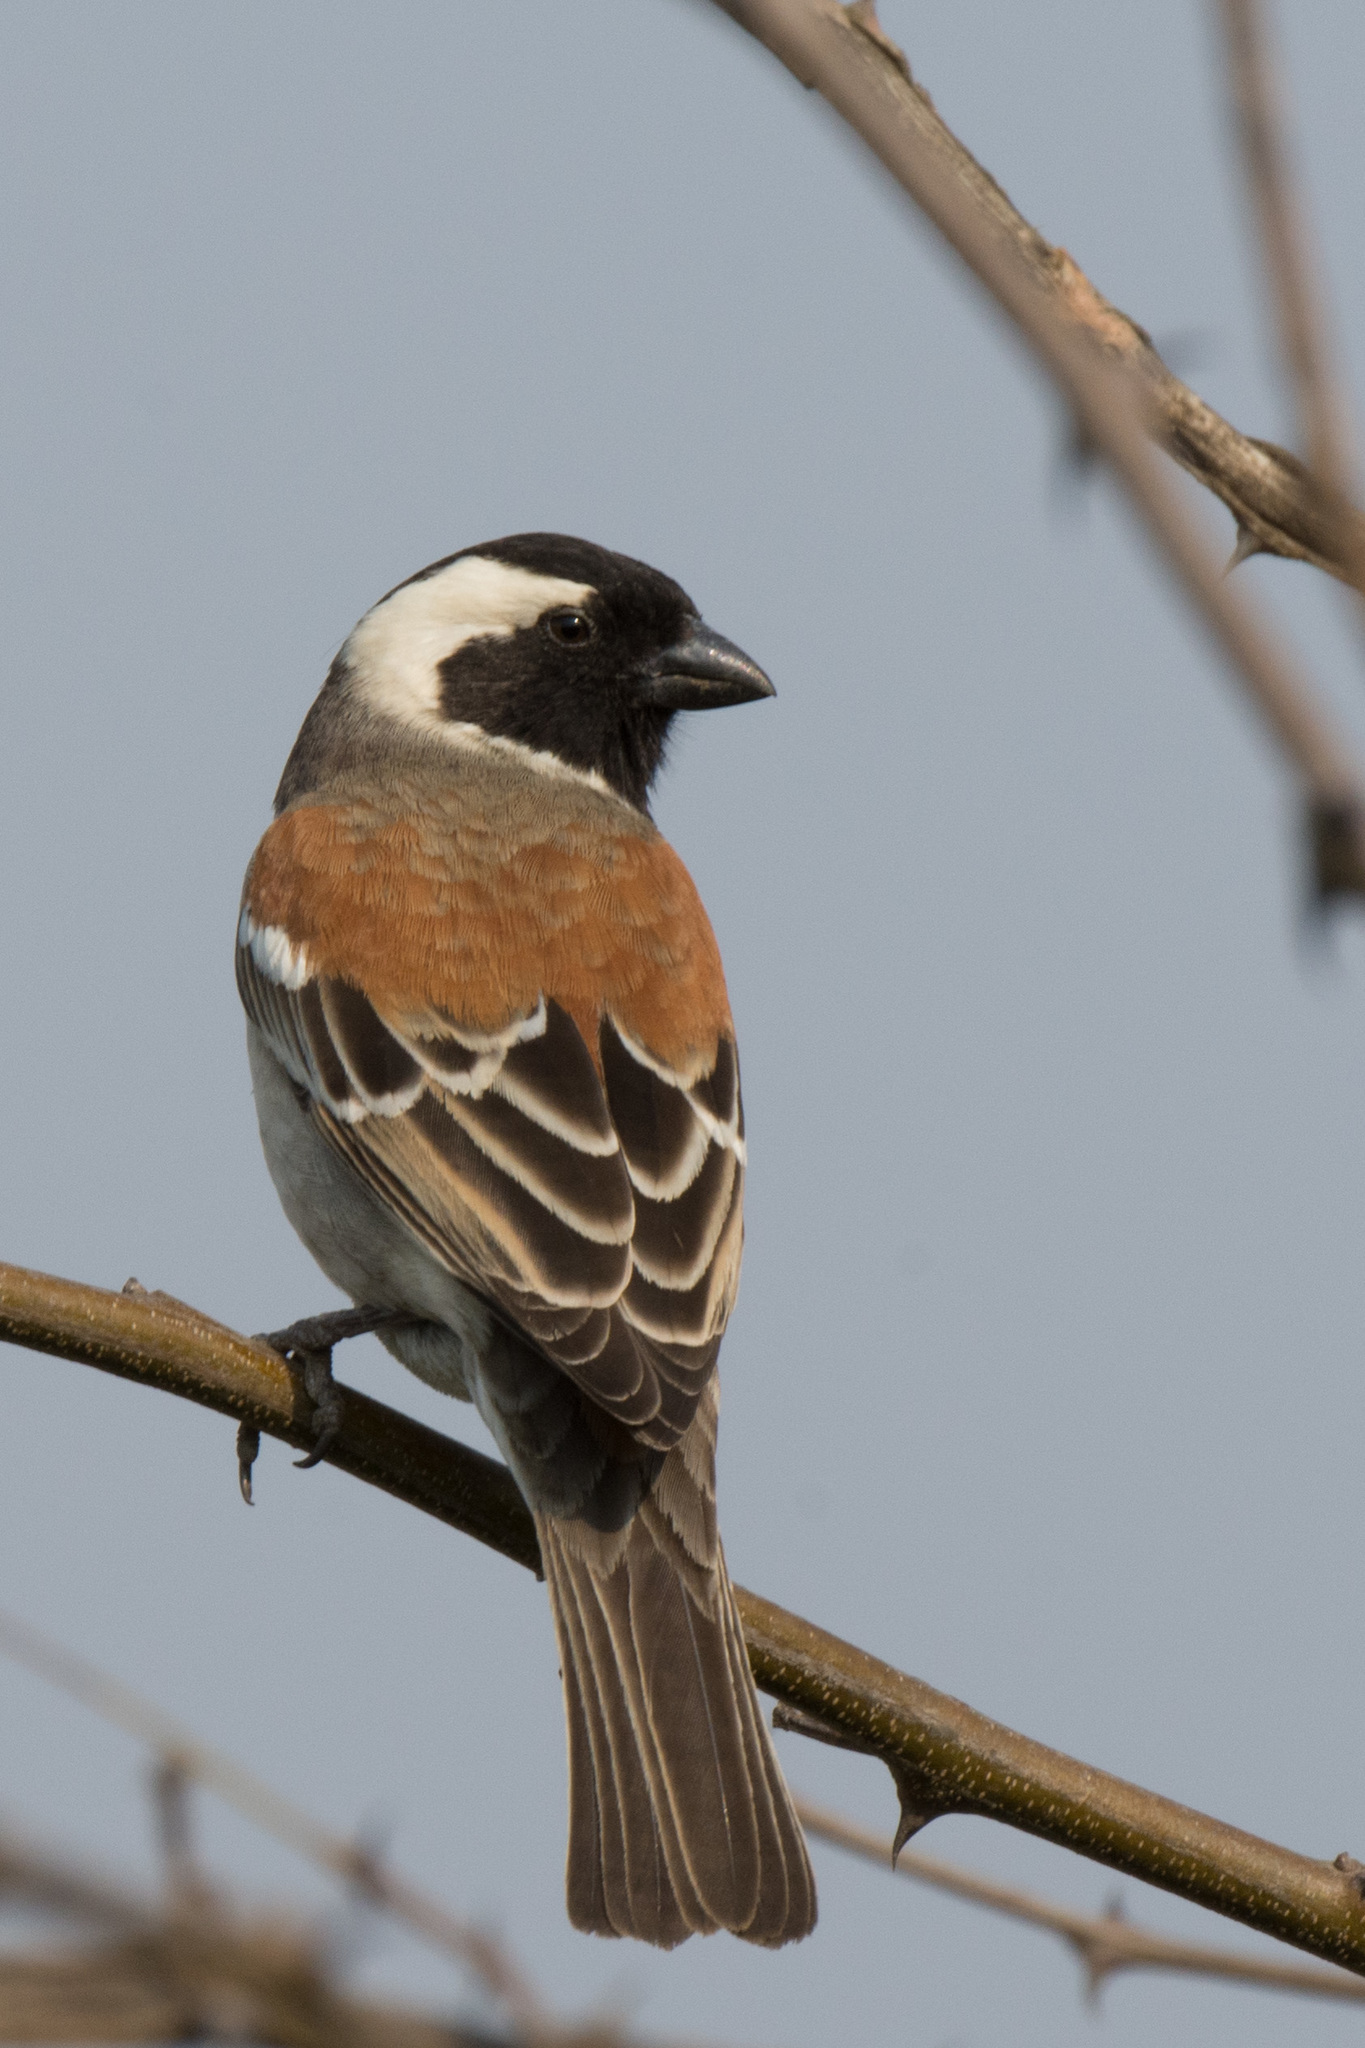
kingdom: Animalia
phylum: Chordata
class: Aves
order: Passeriformes
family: Passeridae
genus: Passer
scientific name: Passer melanurus
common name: Cape sparrow
